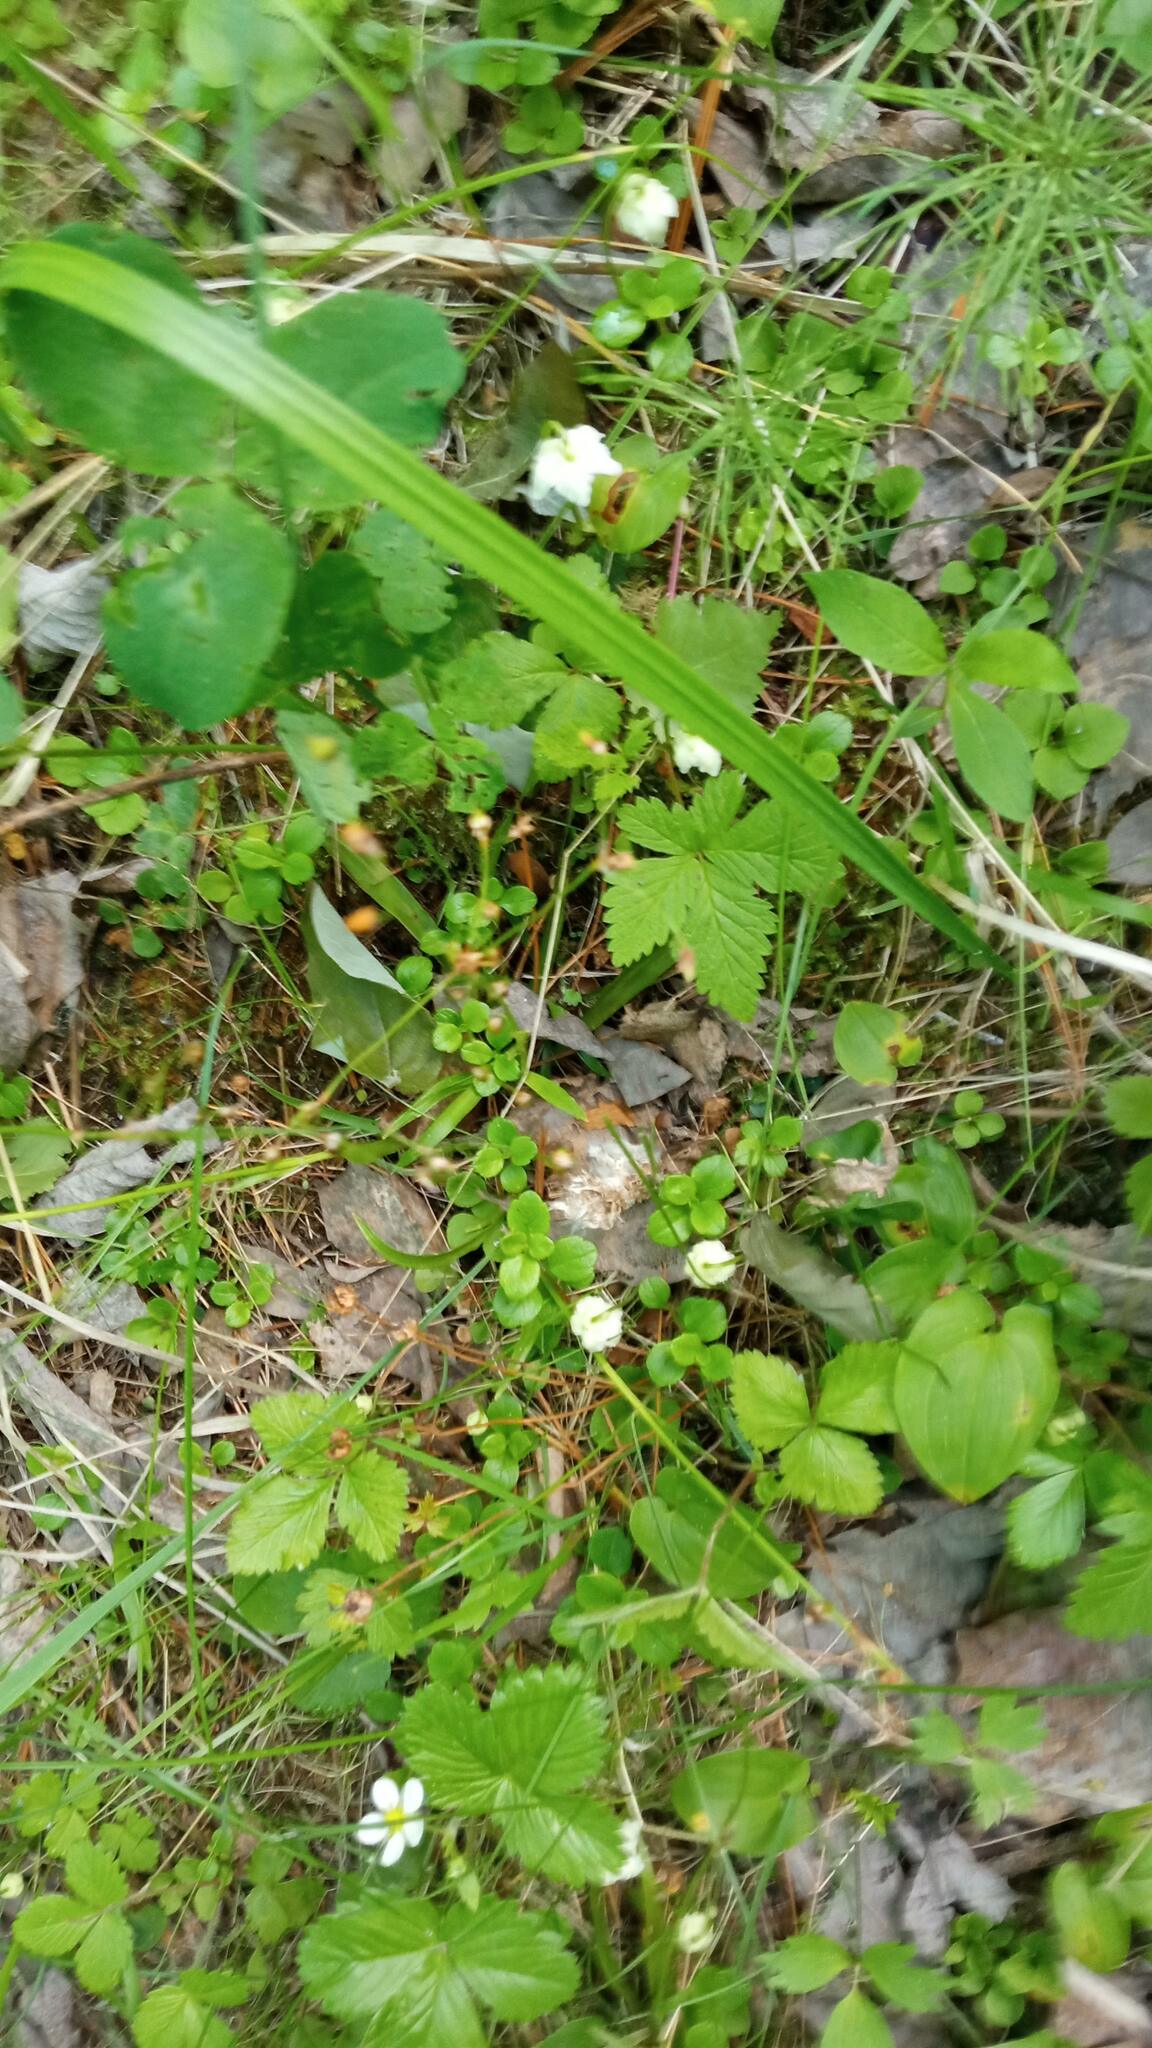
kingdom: Plantae
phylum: Tracheophyta
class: Magnoliopsida
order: Ericales
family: Ericaceae
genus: Moneses
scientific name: Moneses uniflora
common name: One-flowered wintergreen
